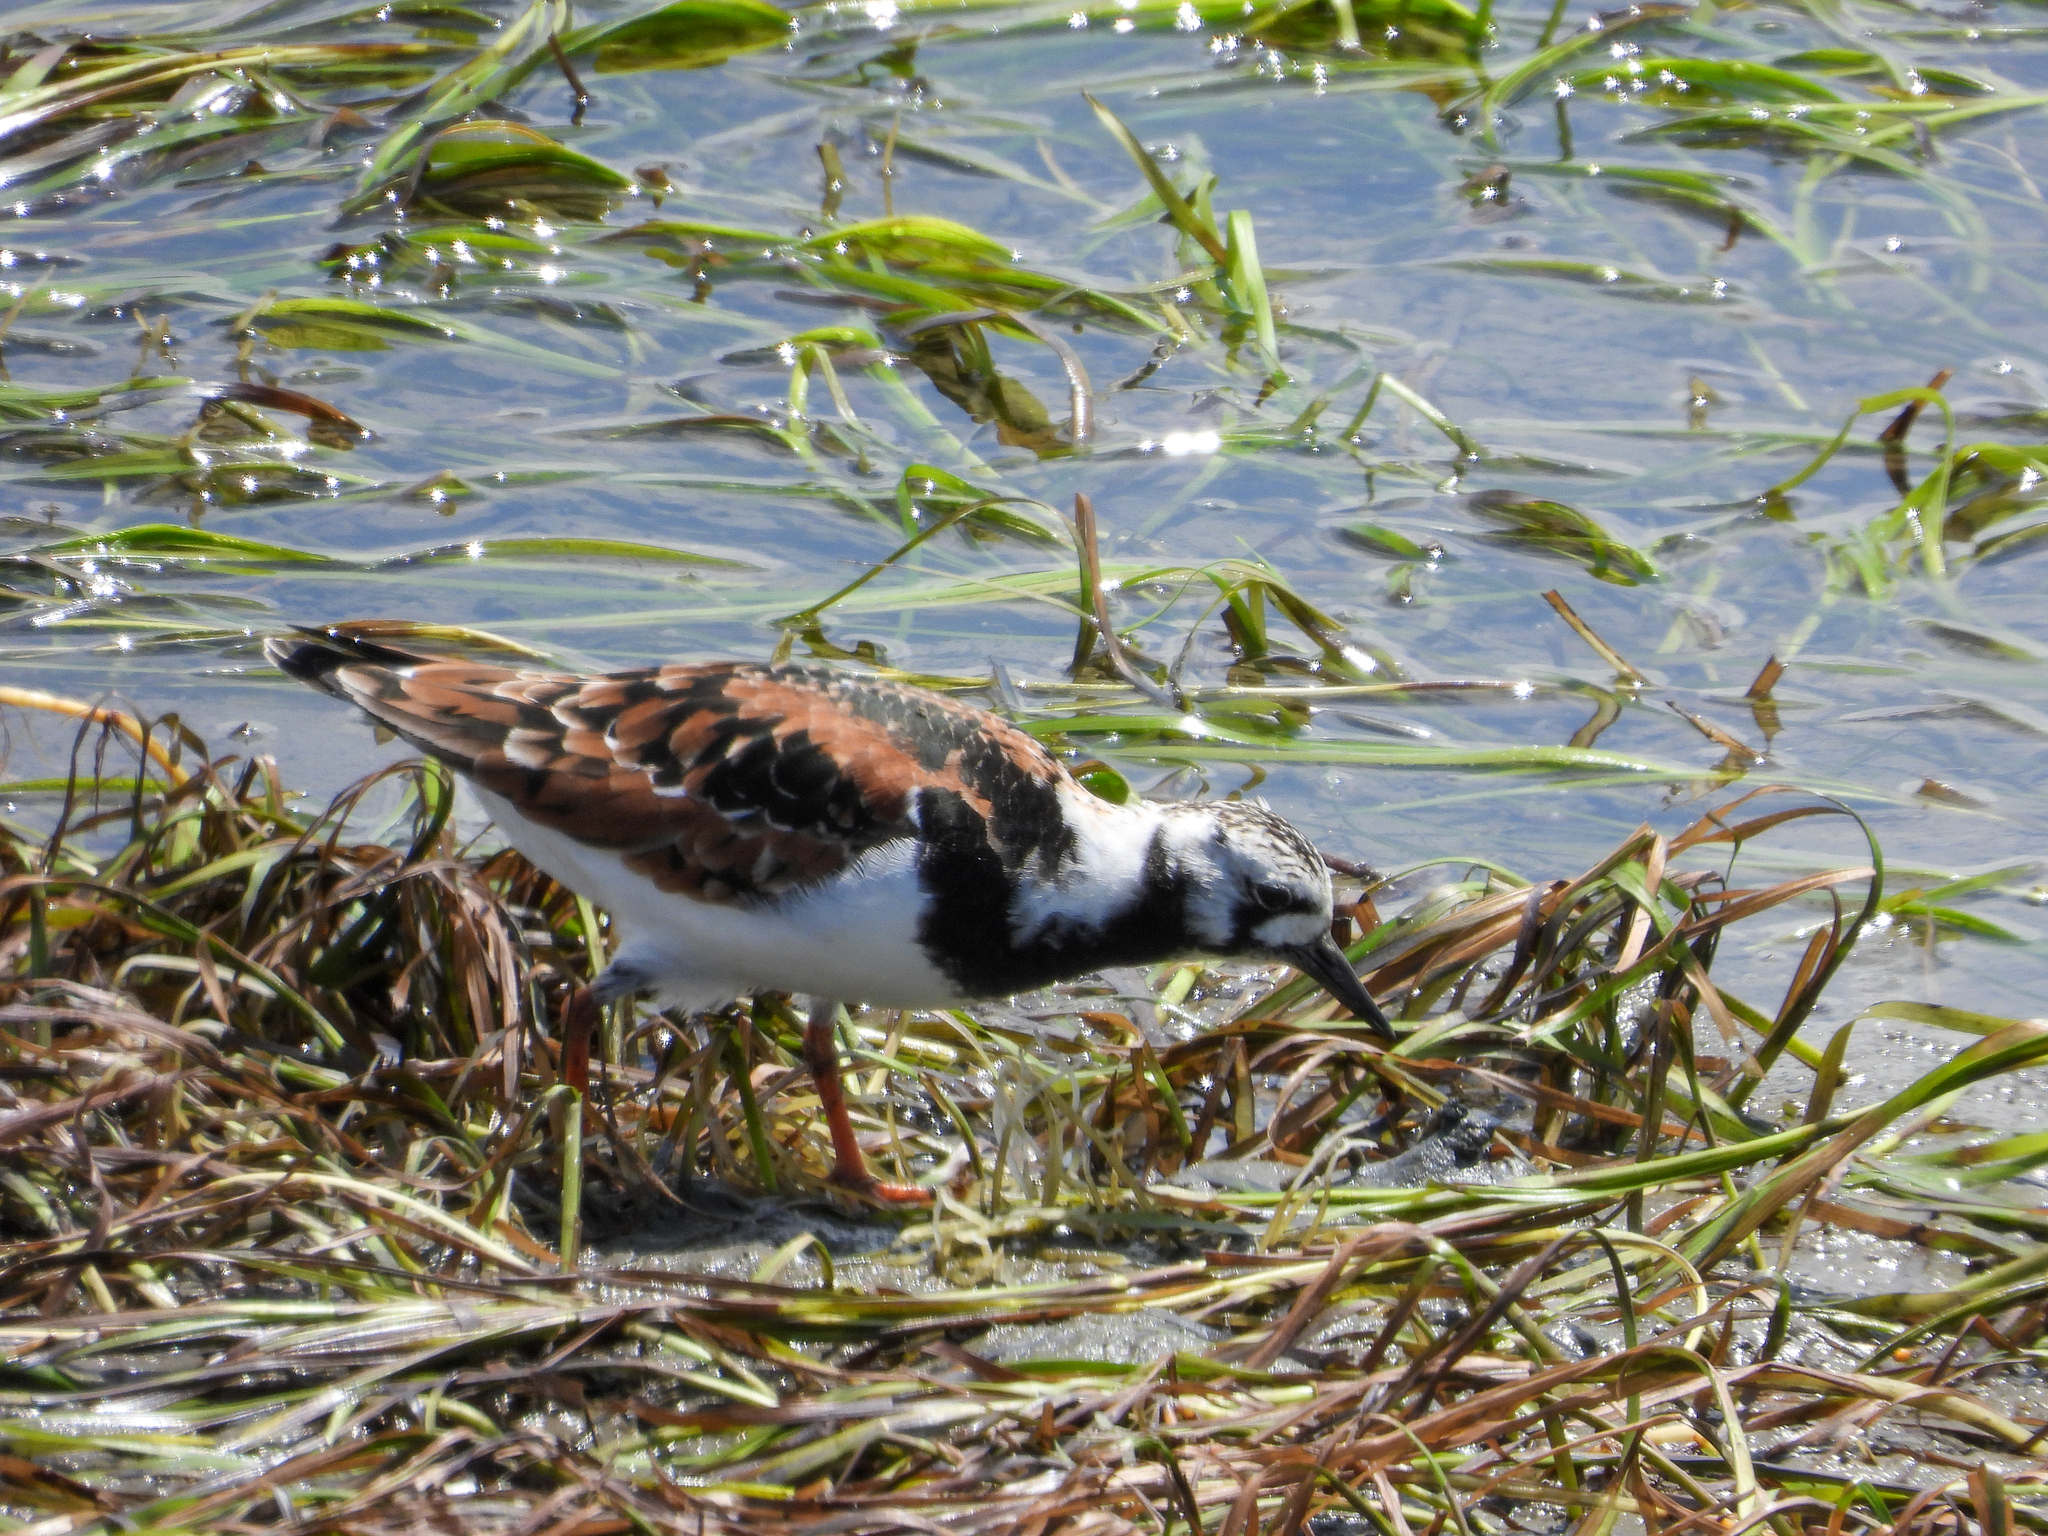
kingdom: Animalia
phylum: Chordata
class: Aves
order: Charadriiformes
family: Scolopacidae
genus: Arenaria
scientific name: Arenaria interpres
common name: Ruddy turnstone
